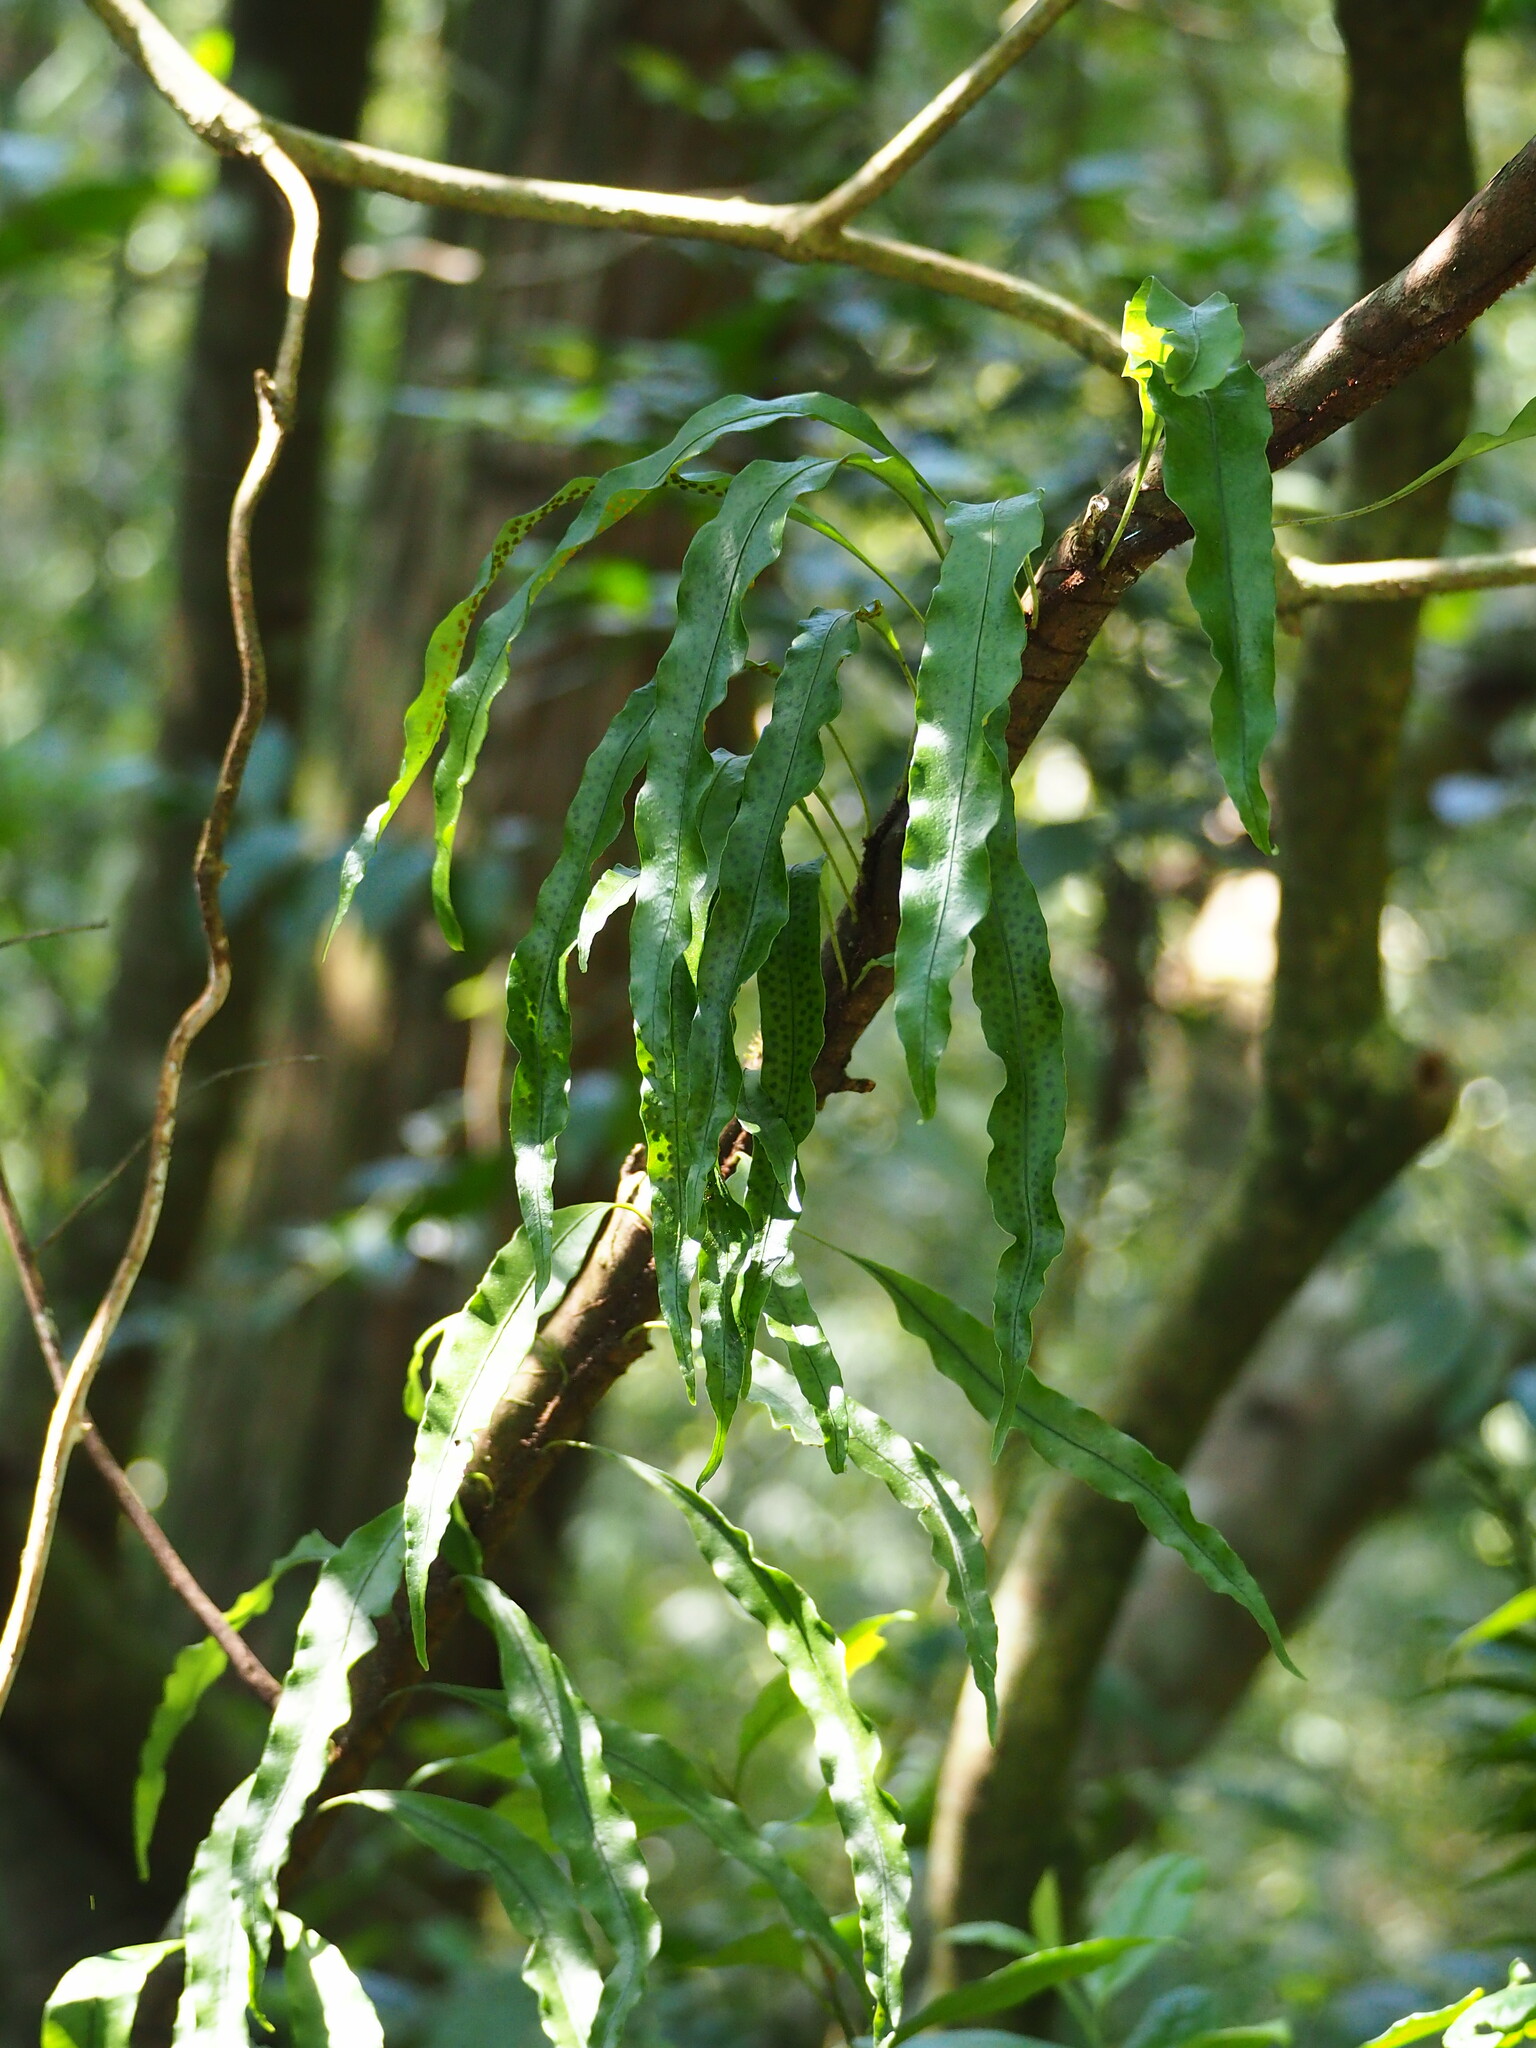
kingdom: Plantae
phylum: Tracheophyta
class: Polypodiopsida
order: Polypodiales
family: Polypodiaceae
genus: Lepisorus
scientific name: Lepisorus superficialis
